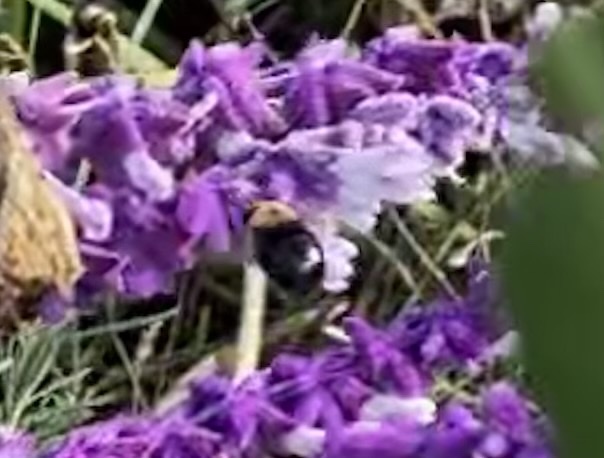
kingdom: Animalia
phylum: Arthropoda
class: Insecta
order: Hymenoptera
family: Apidae
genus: Xylocopa
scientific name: Xylocopa tabaniformis
